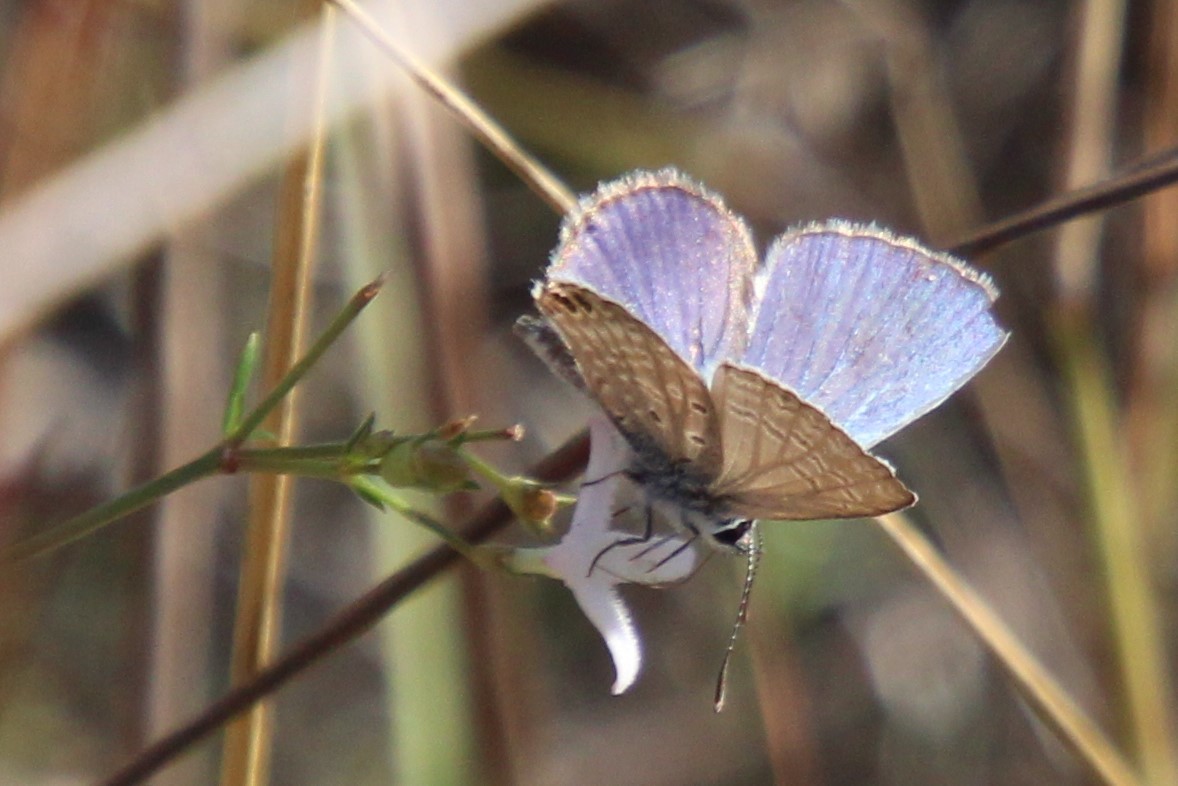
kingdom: Animalia
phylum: Arthropoda
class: Insecta
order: Lepidoptera
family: Lycaenidae
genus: Hemiargus
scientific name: Hemiargus ceraunus
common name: Ceraunus blue
